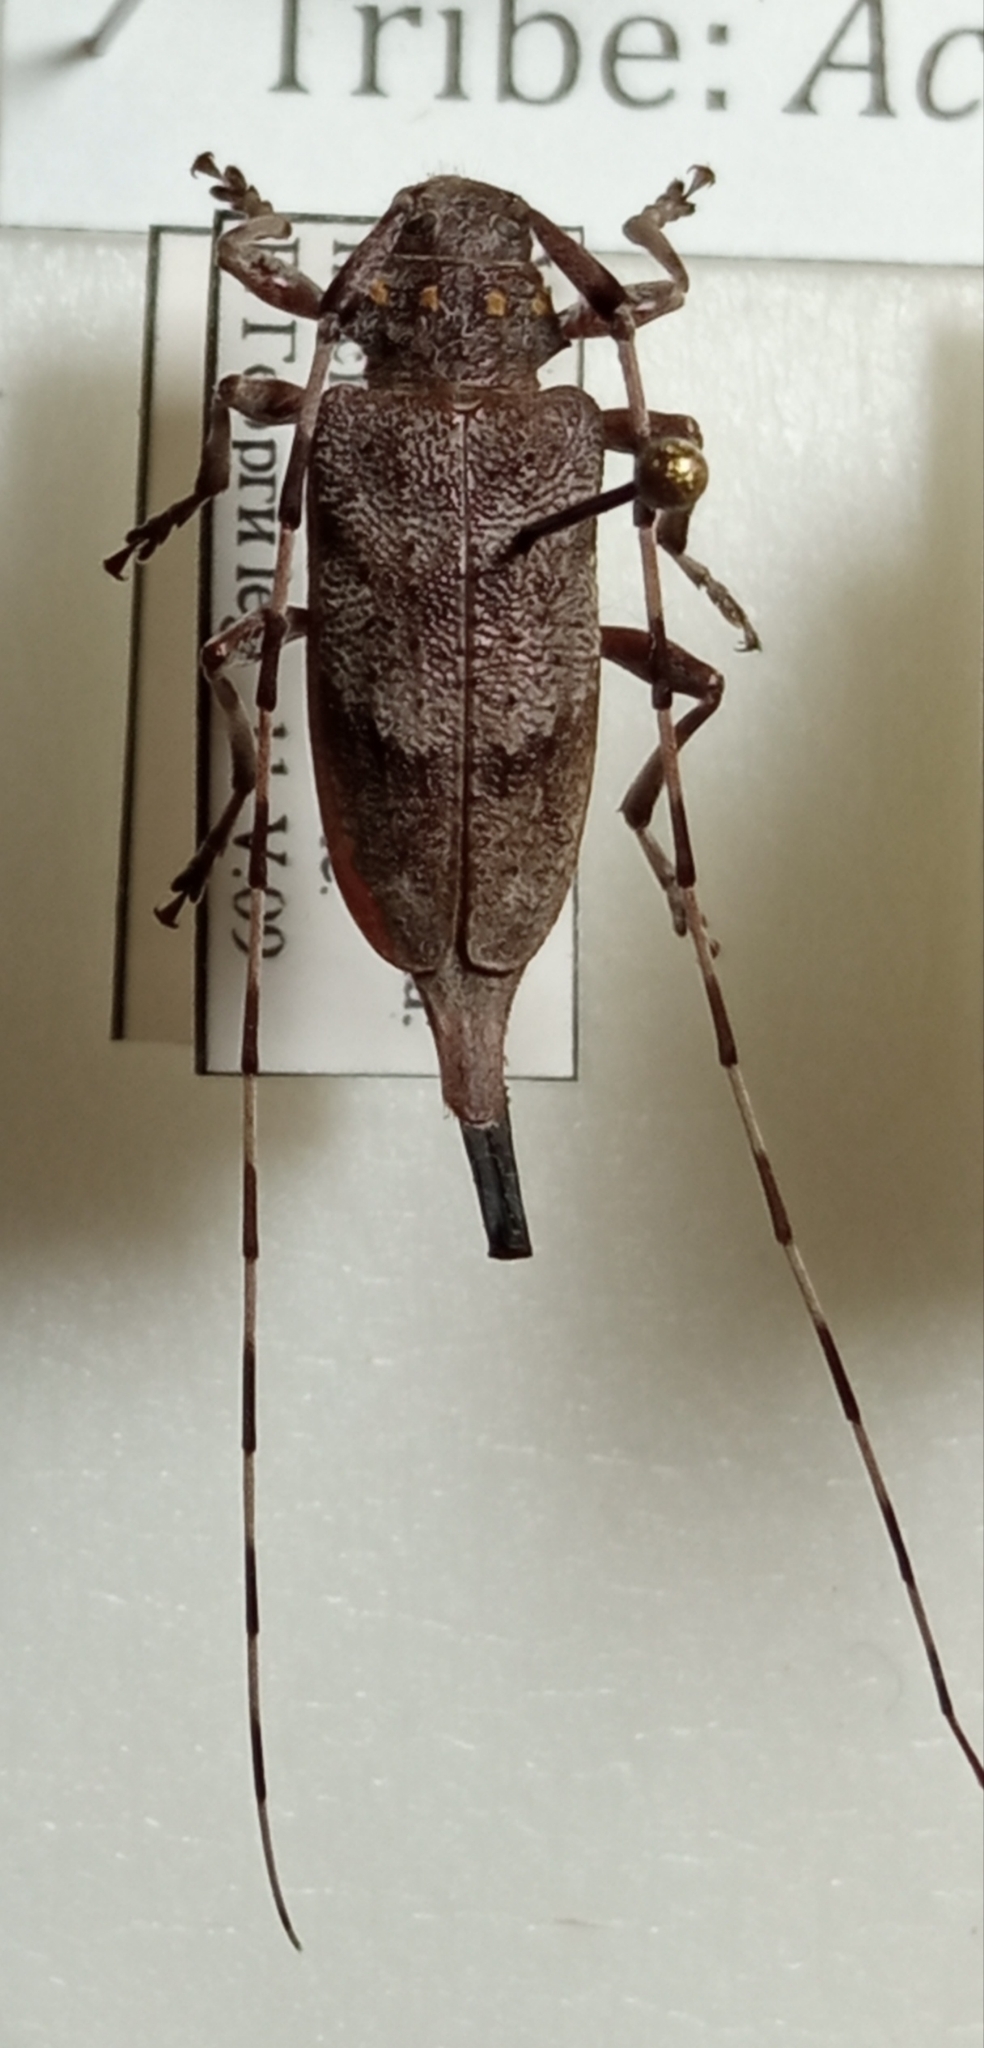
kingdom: Animalia
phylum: Arthropoda
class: Insecta
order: Coleoptera
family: Cerambycidae
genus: Acanthocinus
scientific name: Acanthocinus aedilis
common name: Timberman beetle
